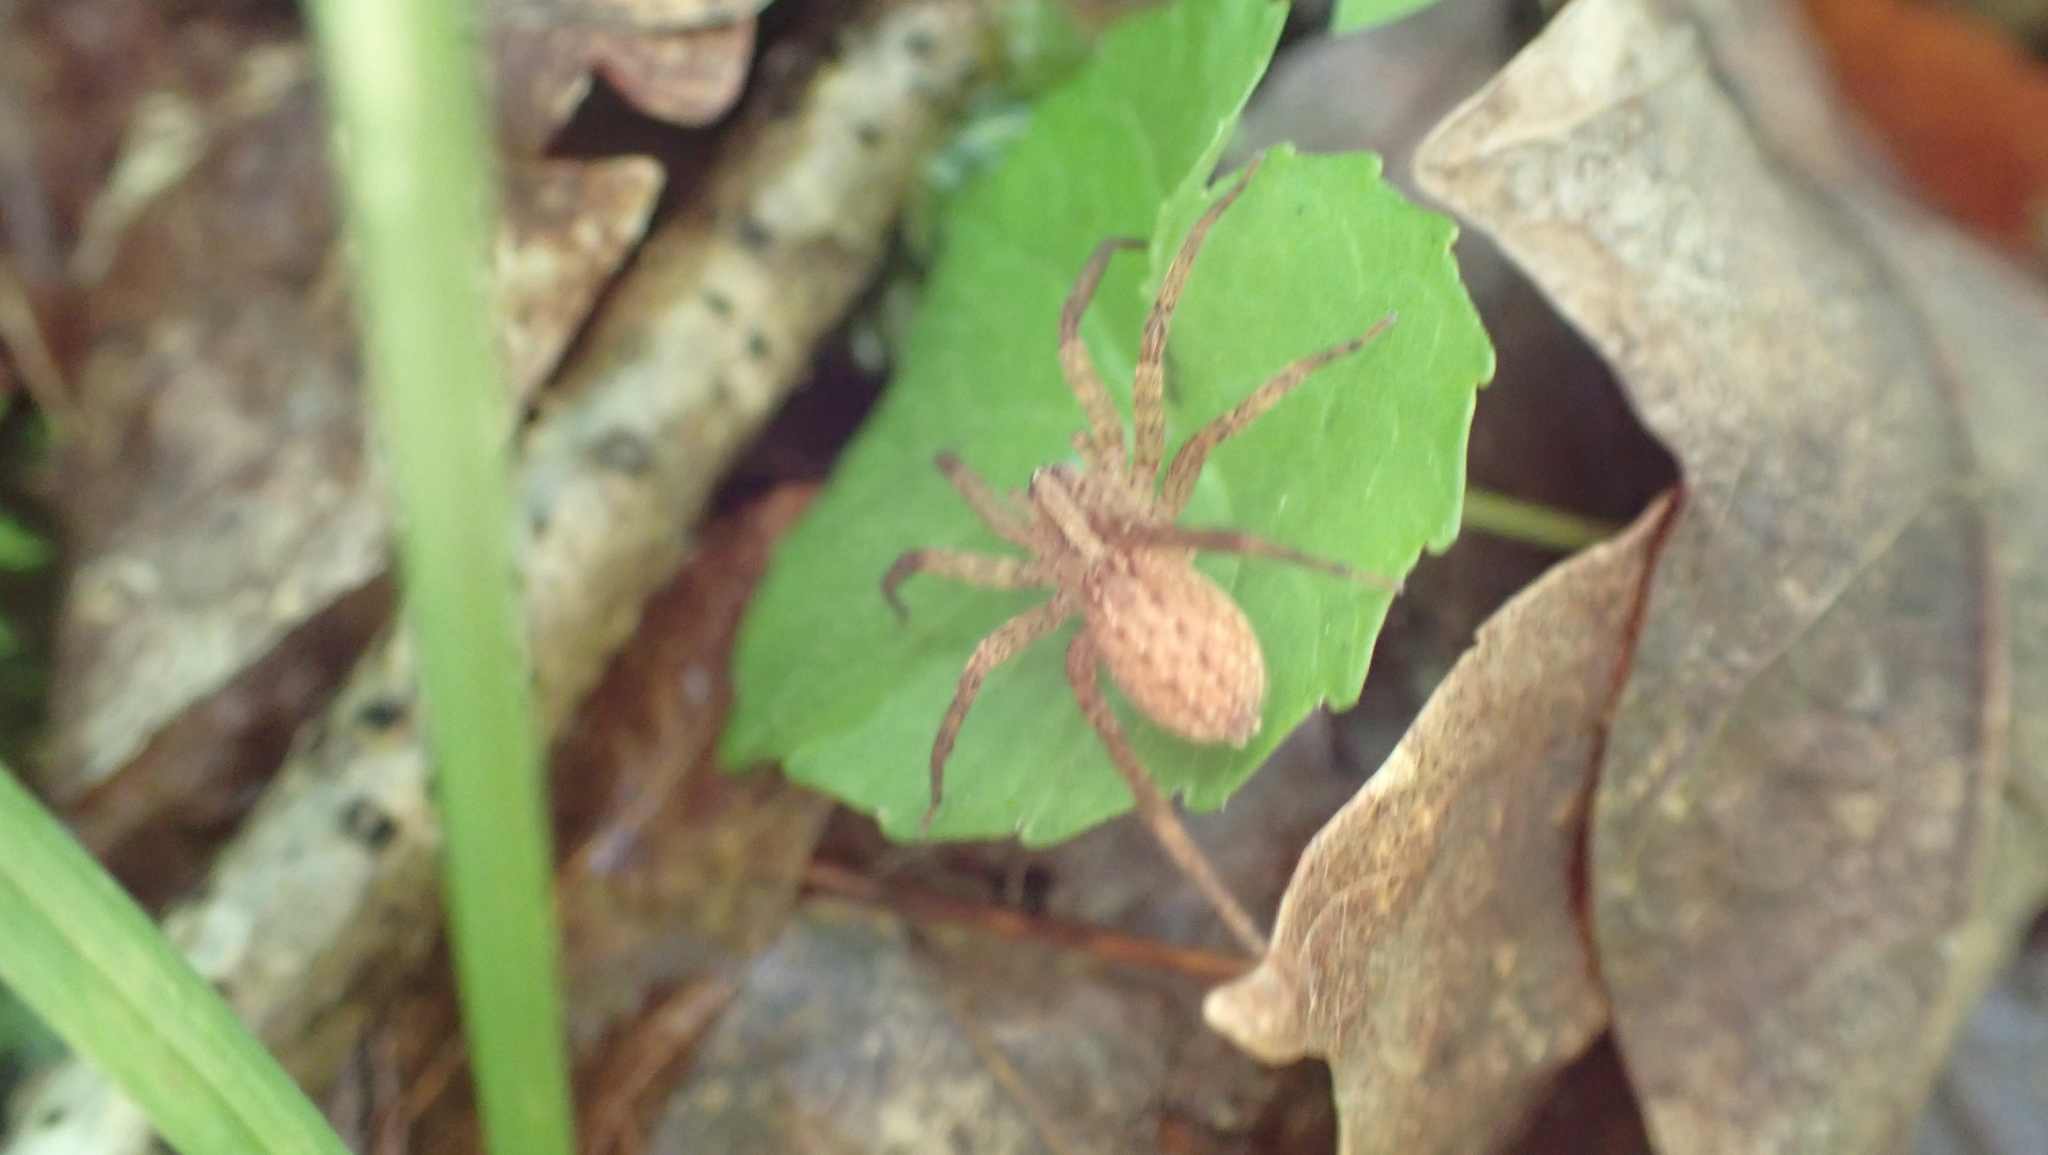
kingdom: Animalia
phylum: Arthropoda
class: Arachnida
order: Araneae
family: Ctenidae
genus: Anahita
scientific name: Anahita punctulata
